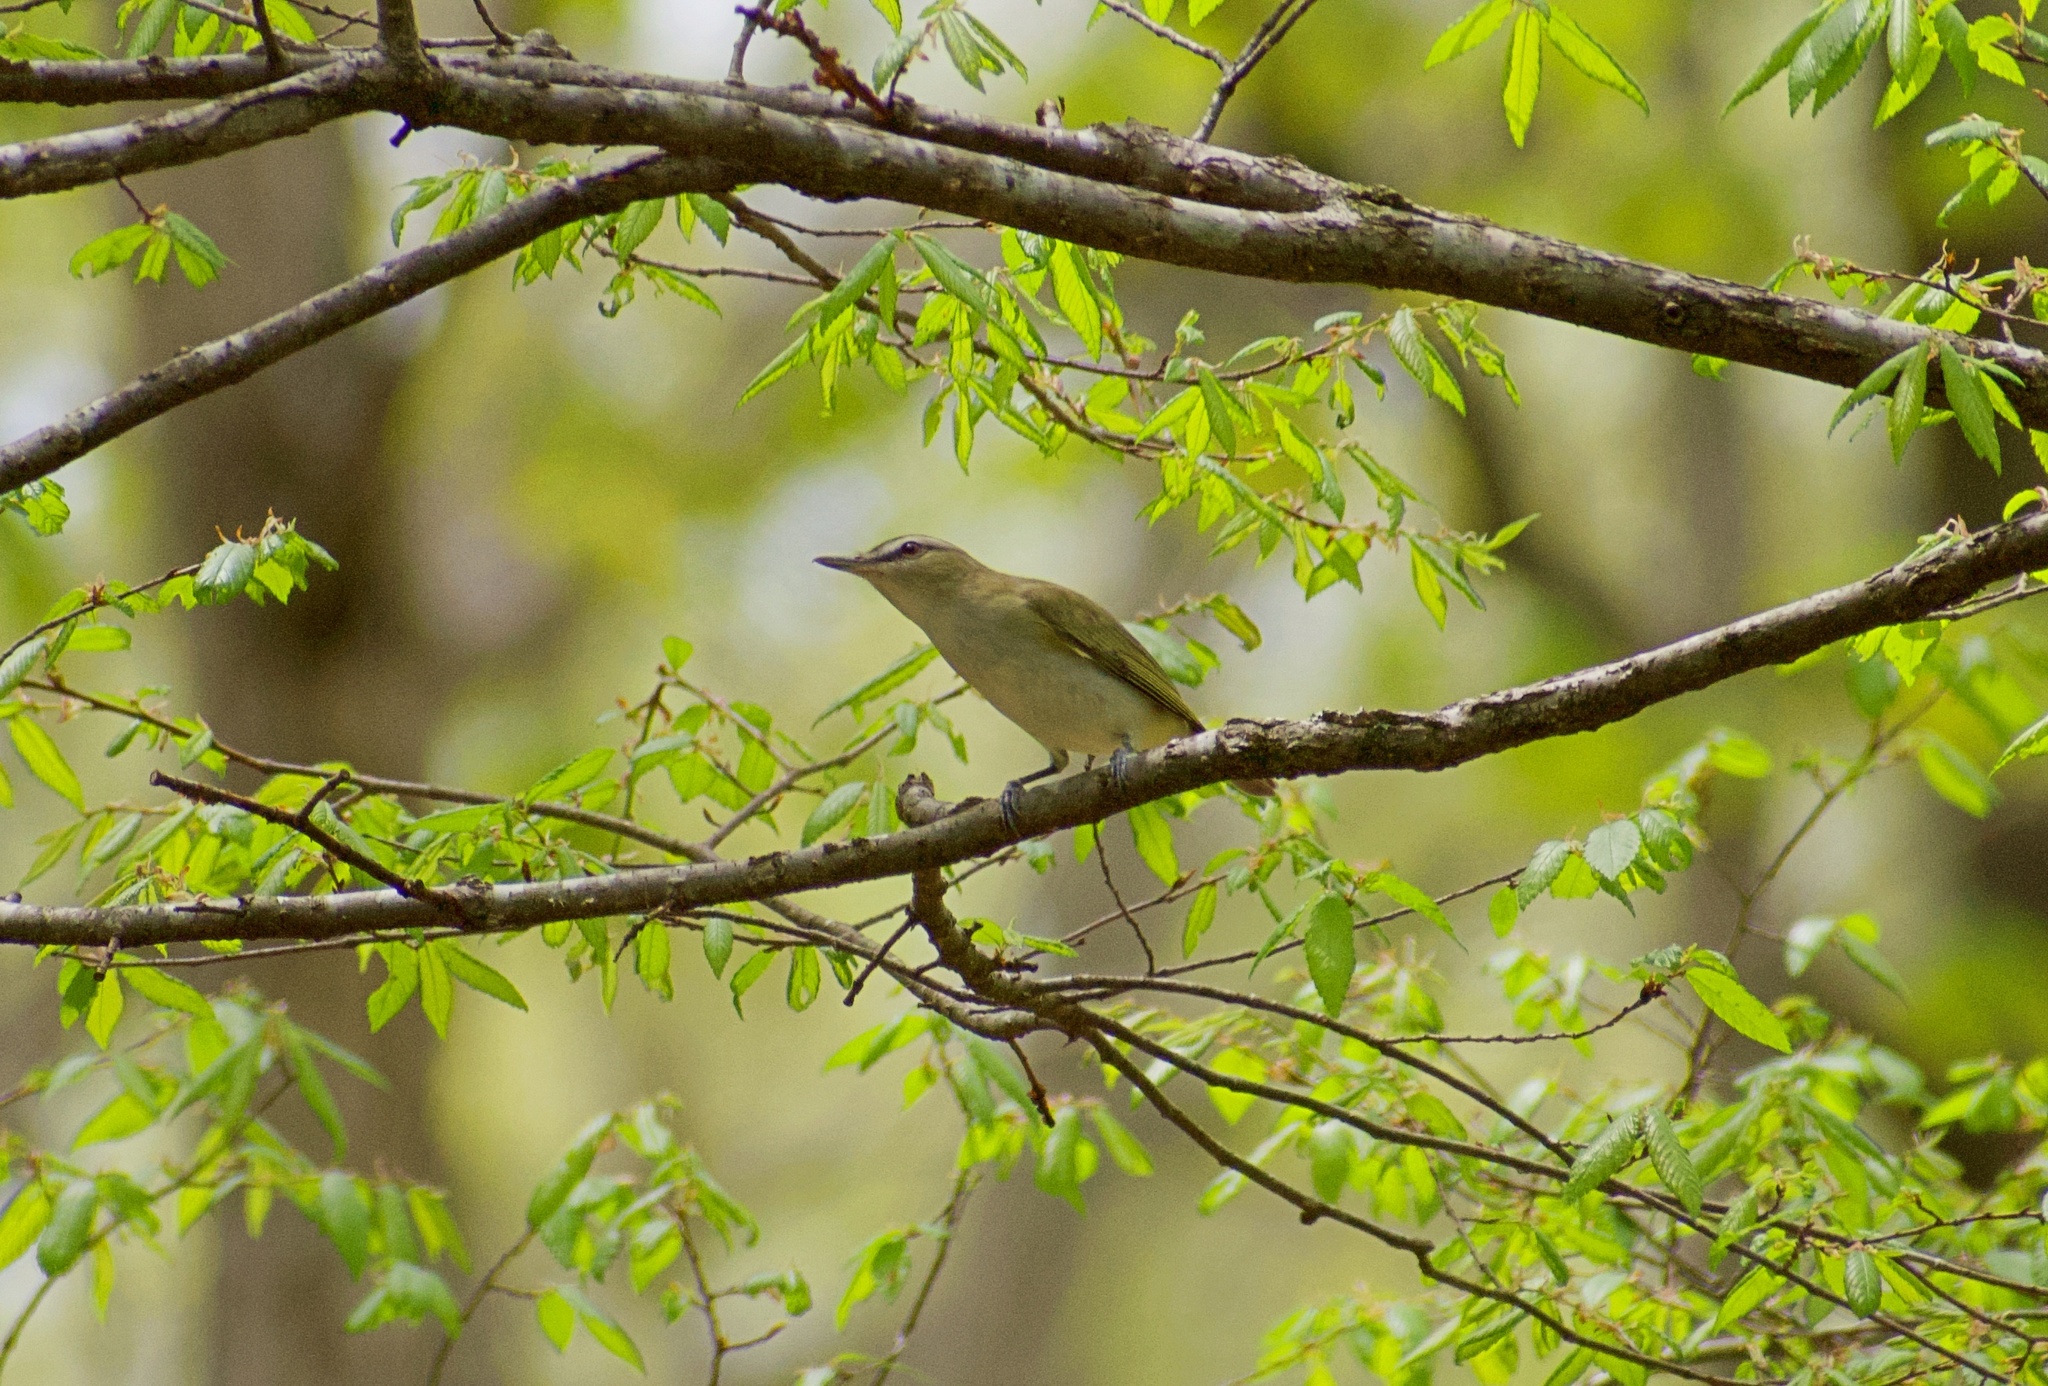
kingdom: Animalia
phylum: Chordata
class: Aves
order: Passeriformes
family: Vireonidae
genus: Vireo
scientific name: Vireo olivaceus
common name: Red-eyed vireo
